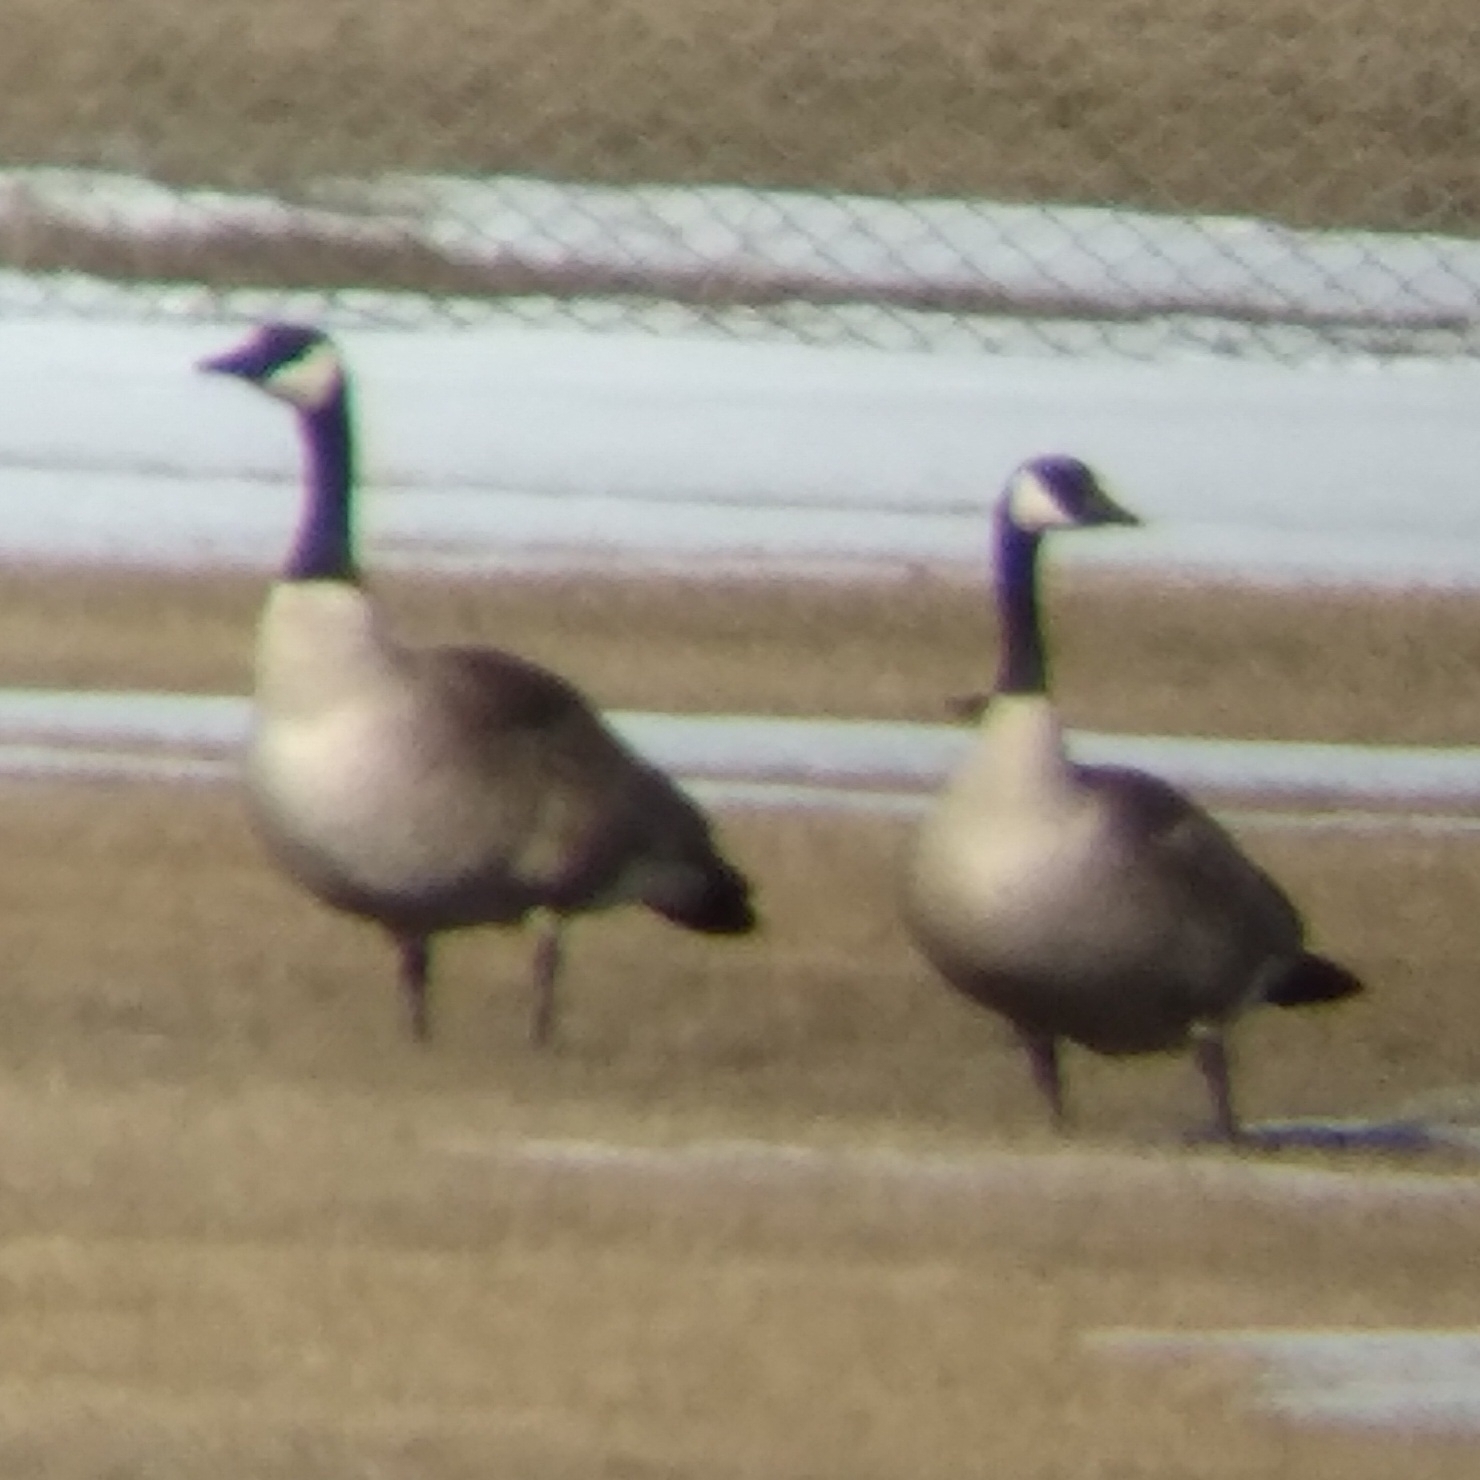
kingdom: Animalia
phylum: Chordata
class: Aves
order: Anseriformes
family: Anatidae
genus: Branta
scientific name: Branta canadensis
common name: Canada goose
